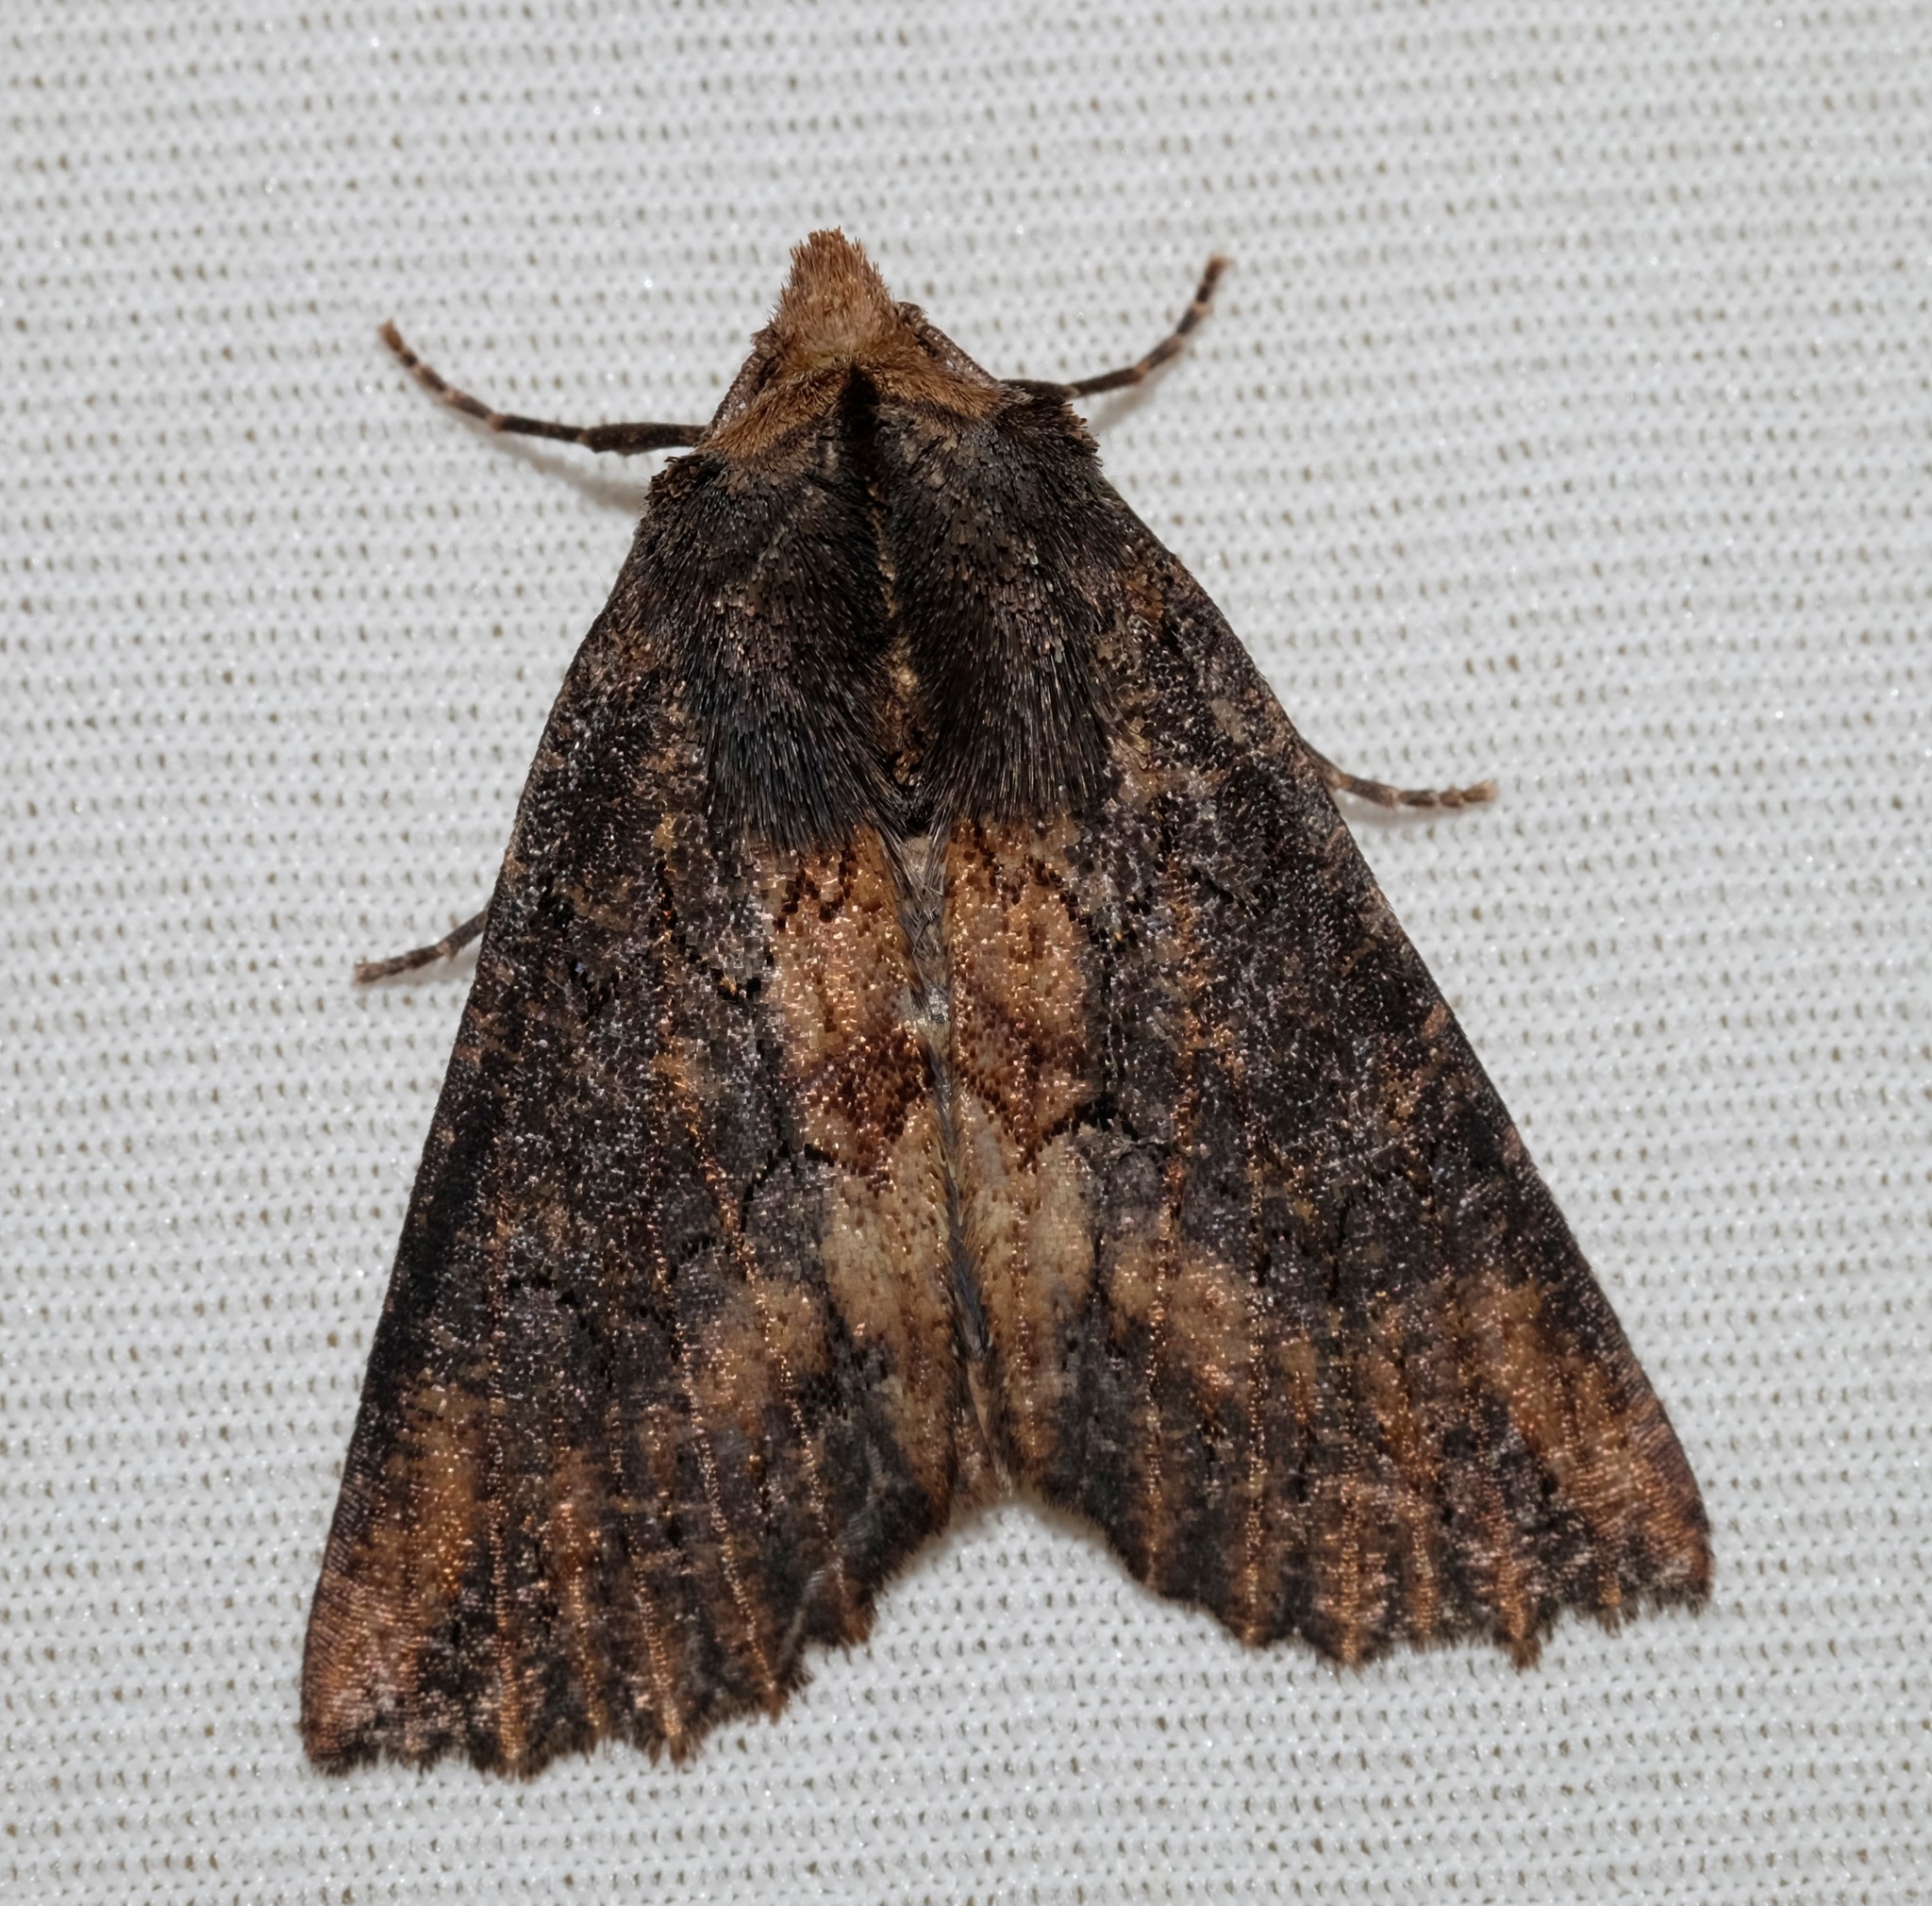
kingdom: Animalia
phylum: Arthropoda
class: Insecta
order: Lepidoptera
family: Geometridae
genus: Nisista
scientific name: Nisista serrata
